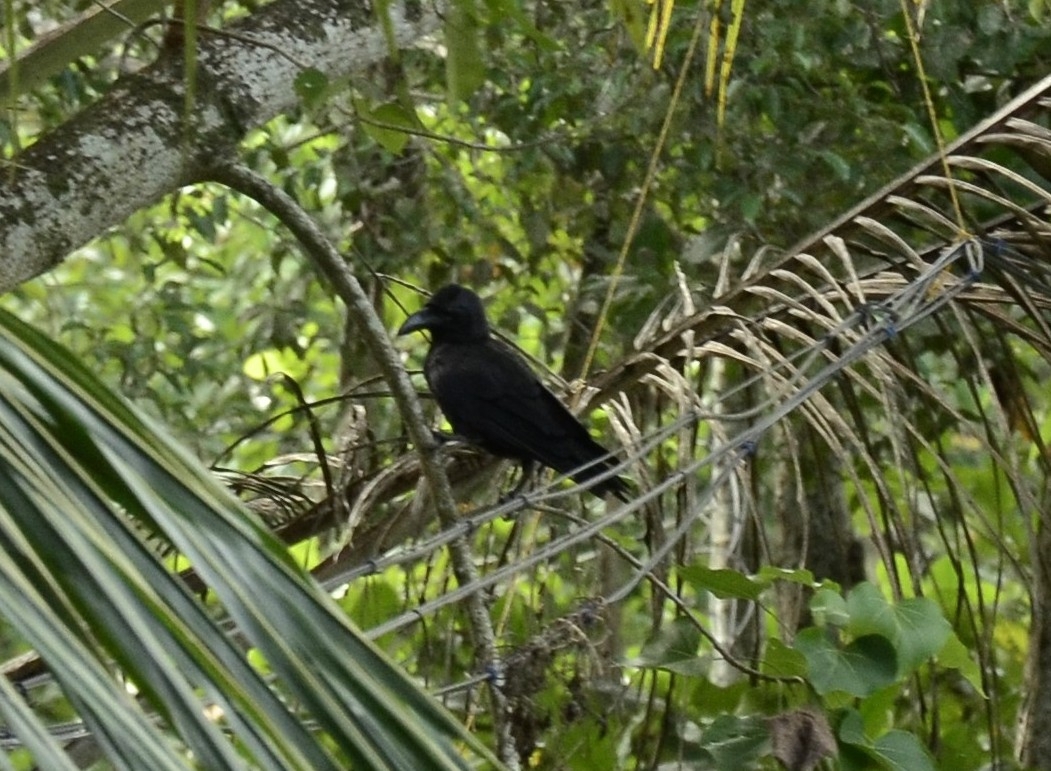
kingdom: Animalia
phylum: Chordata
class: Aves
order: Passeriformes
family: Corvidae
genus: Corvus
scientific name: Corvus macrorhynchos
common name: Large-billed crow
